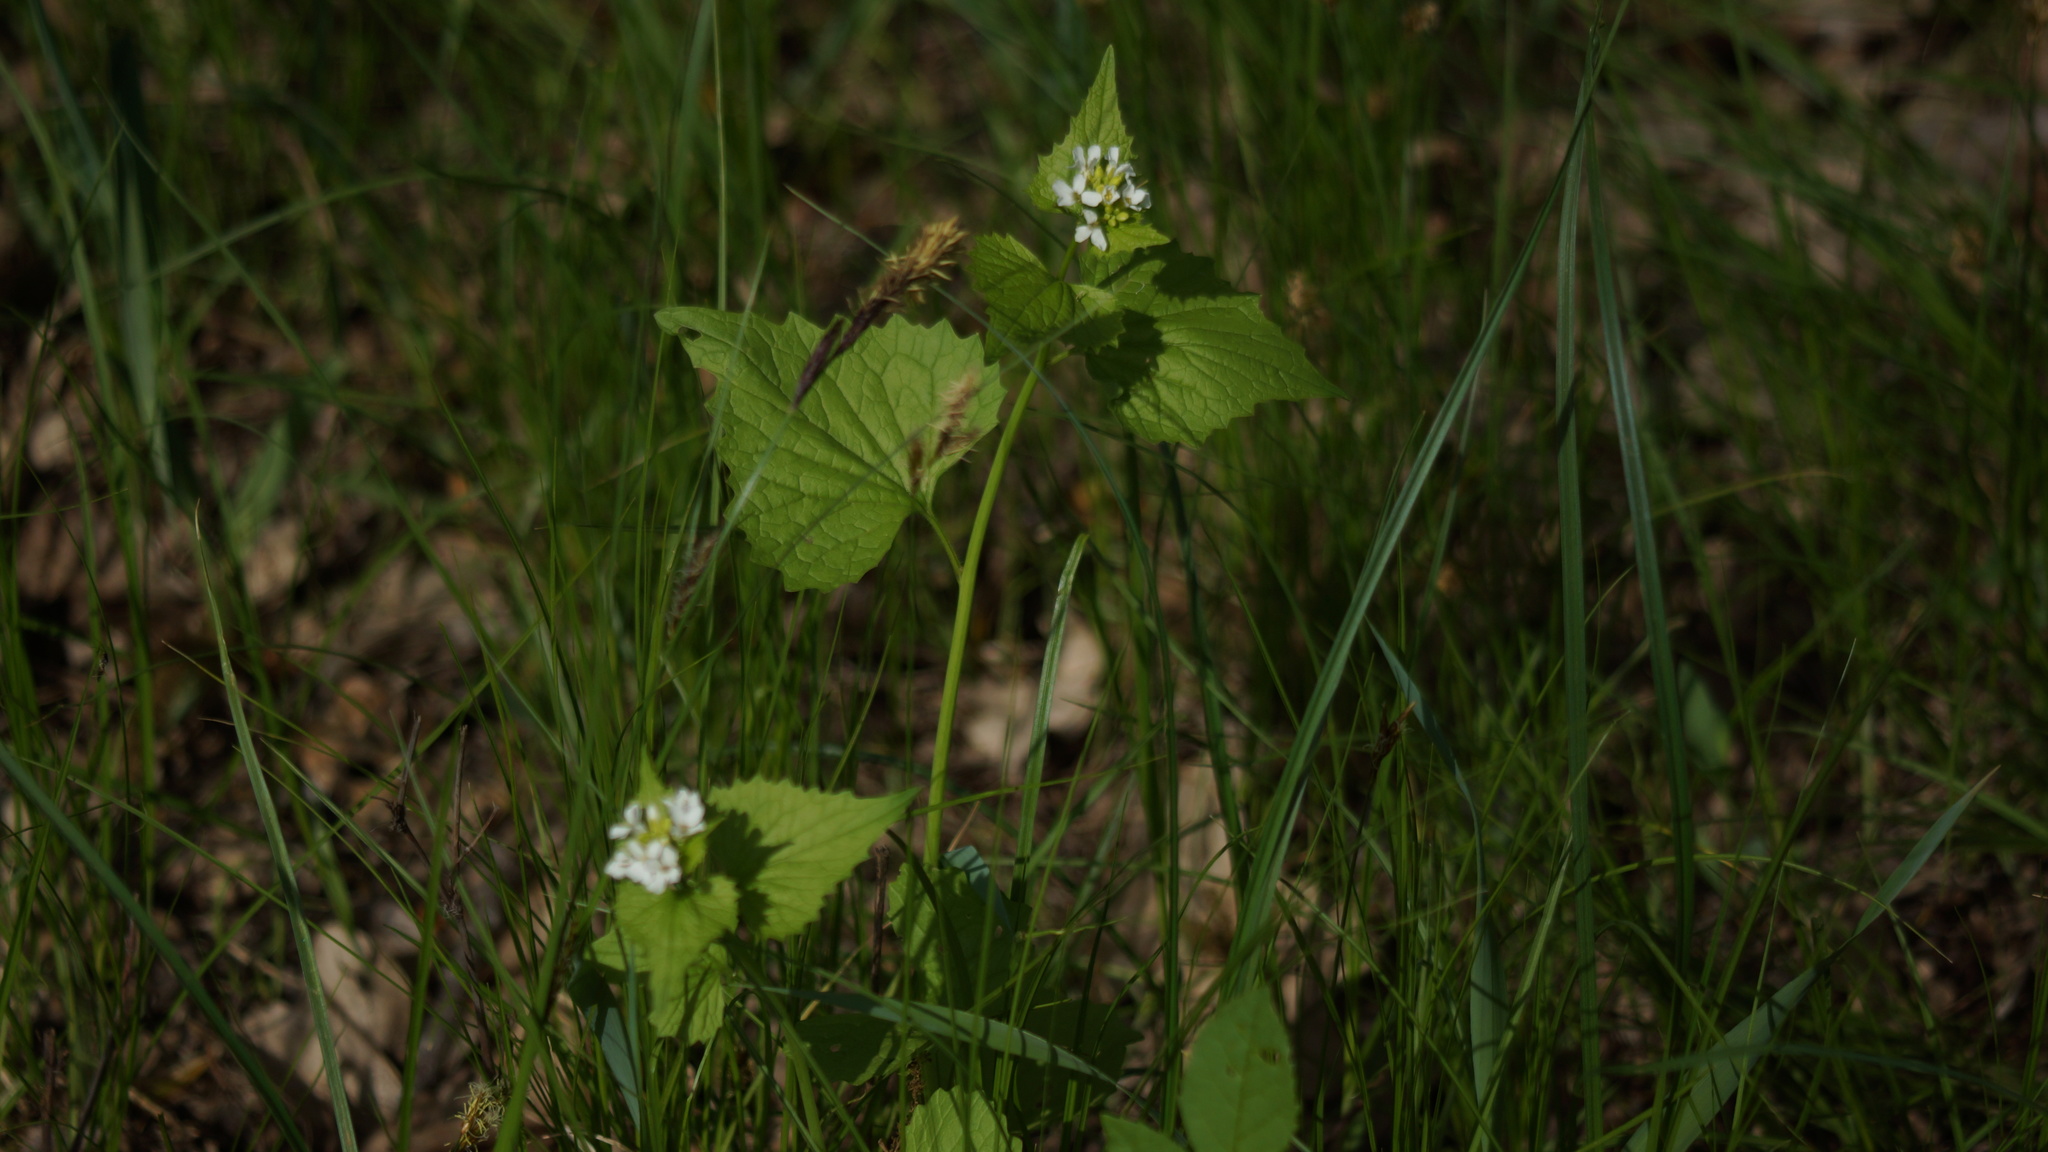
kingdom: Plantae
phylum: Tracheophyta
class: Magnoliopsida
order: Brassicales
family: Brassicaceae
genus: Alliaria
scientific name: Alliaria petiolata
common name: Garlic mustard
